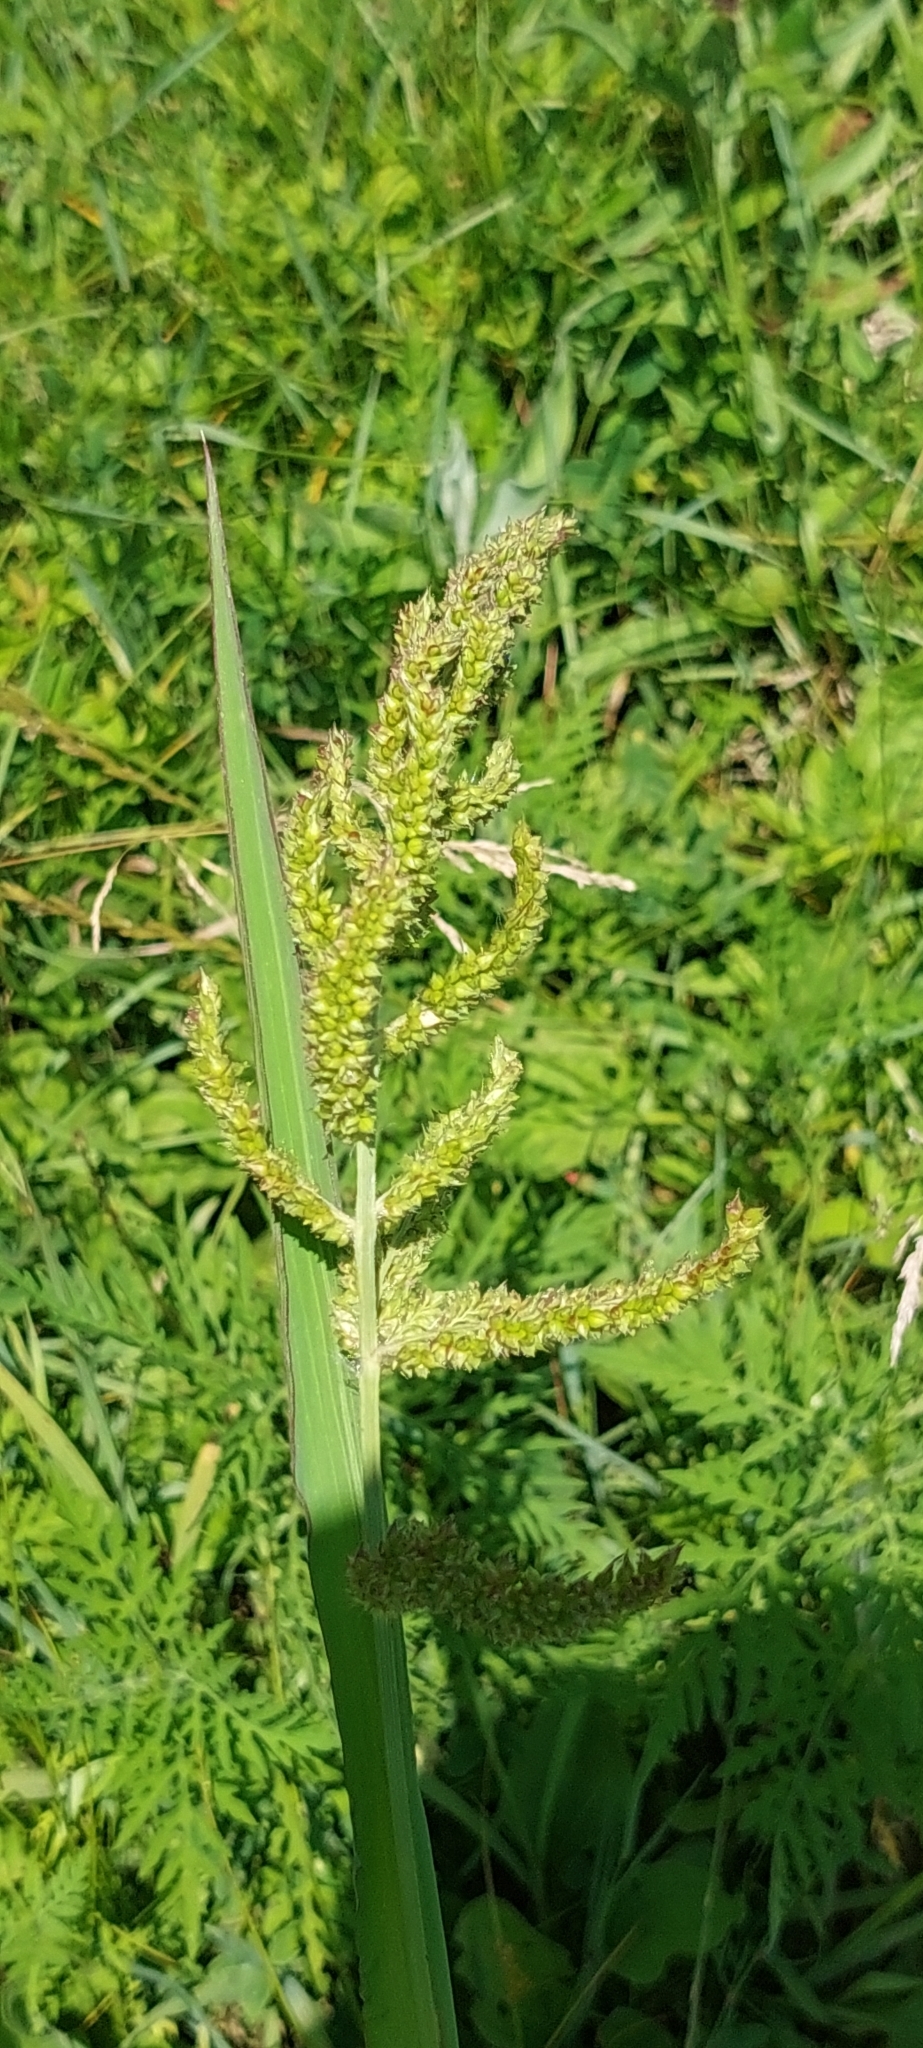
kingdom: Plantae
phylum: Tracheophyta
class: Liliopsida
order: Poales
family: Poaceae
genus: Echinochloa
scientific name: Echinochloa crus-galli
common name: Cockspur
